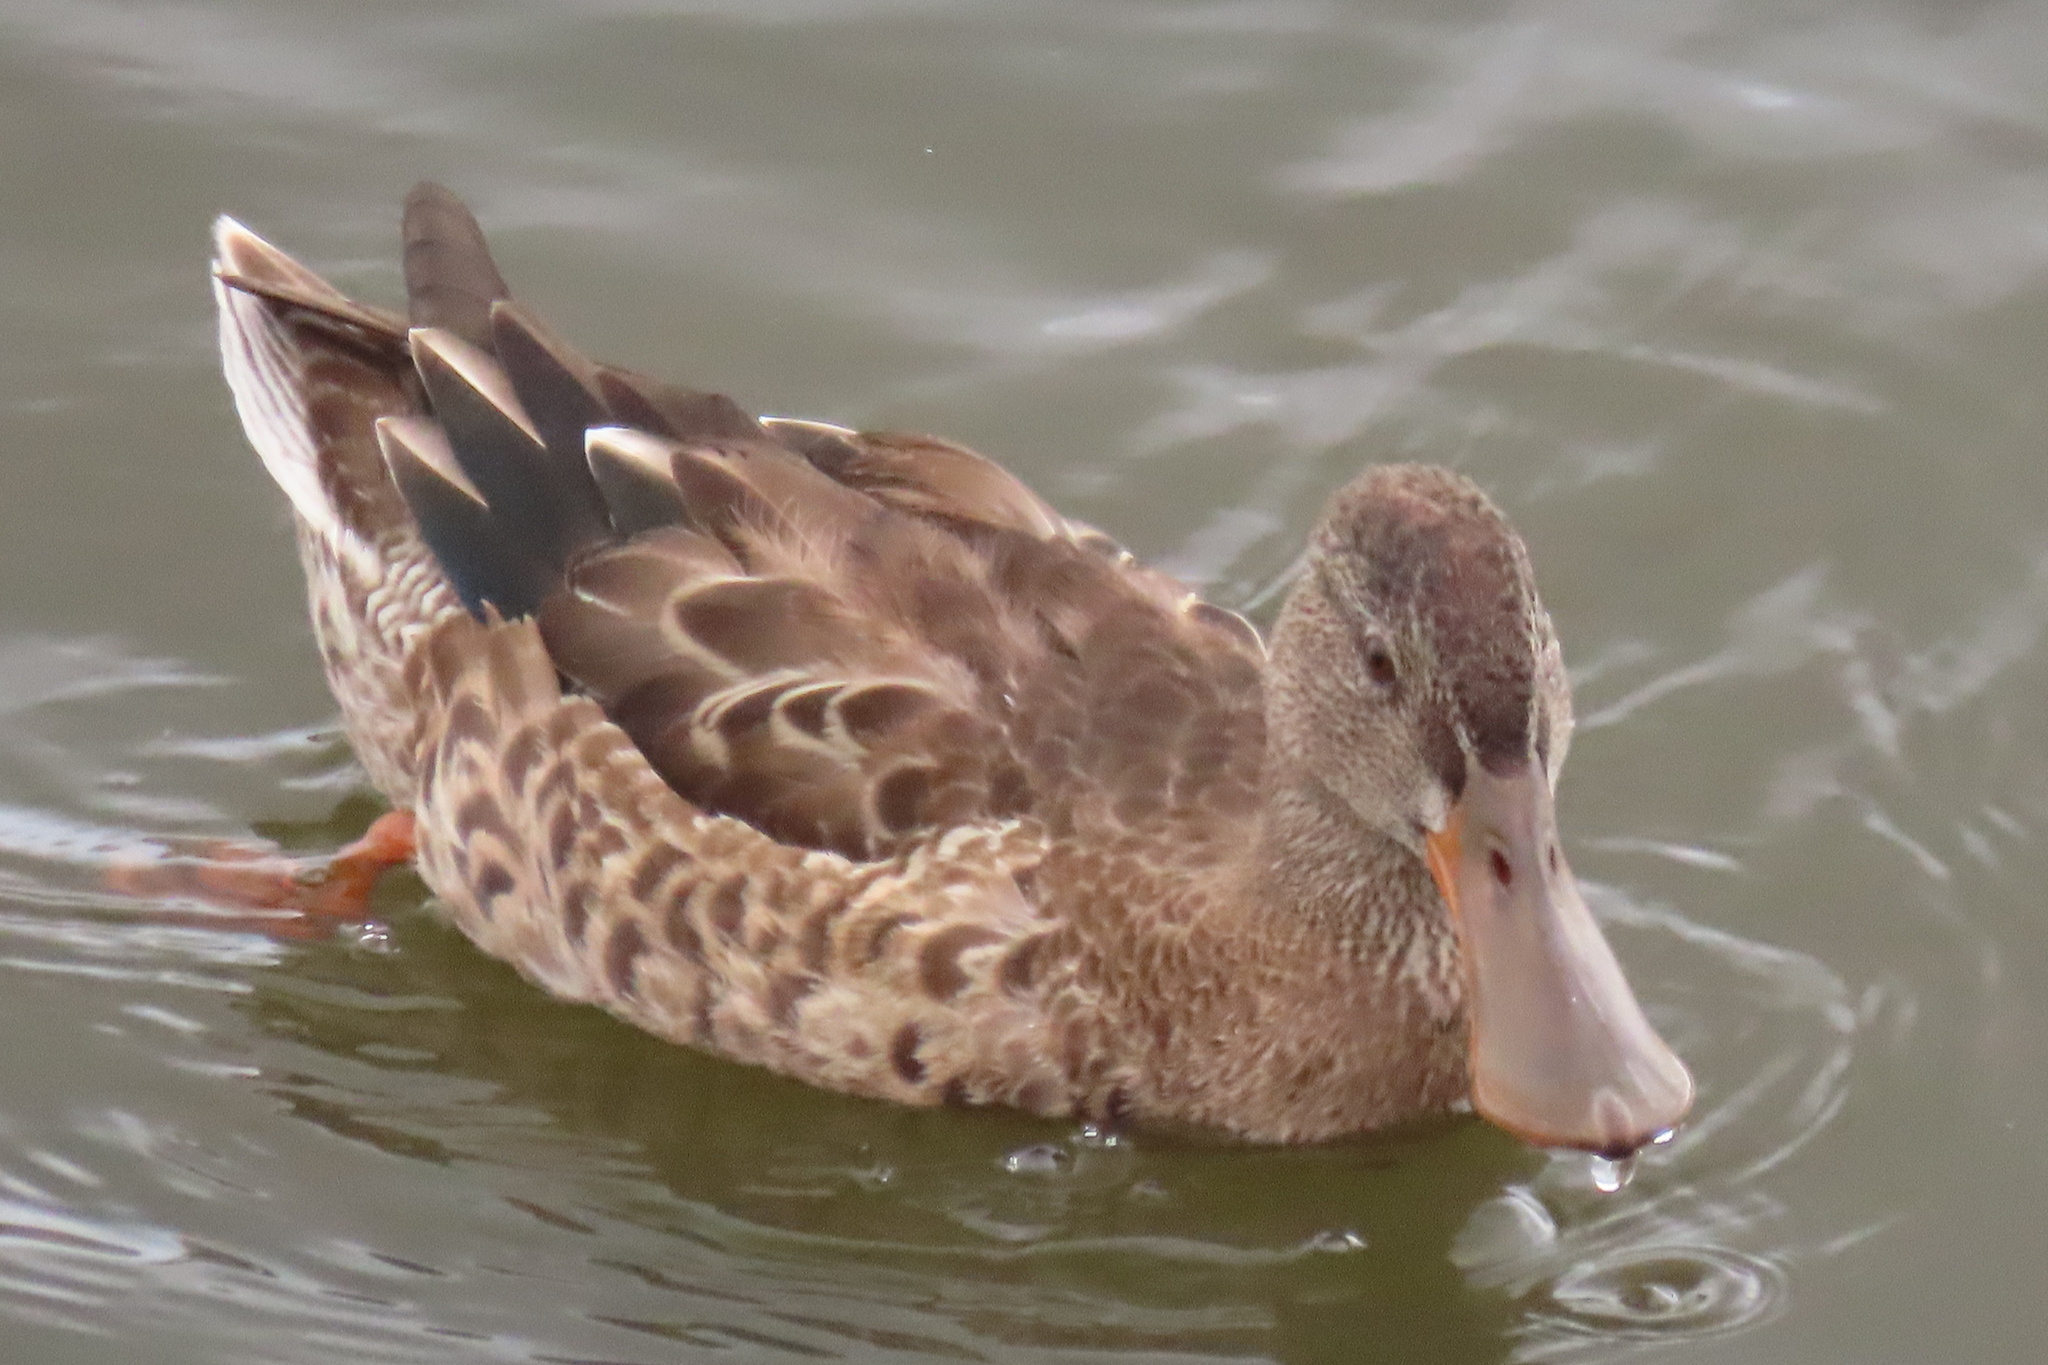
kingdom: Animalia
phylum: Chordata
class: Aves
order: Anseriformes
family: Anatidae
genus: Spatula
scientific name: Spatula clypeata
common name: Northern shoveler
